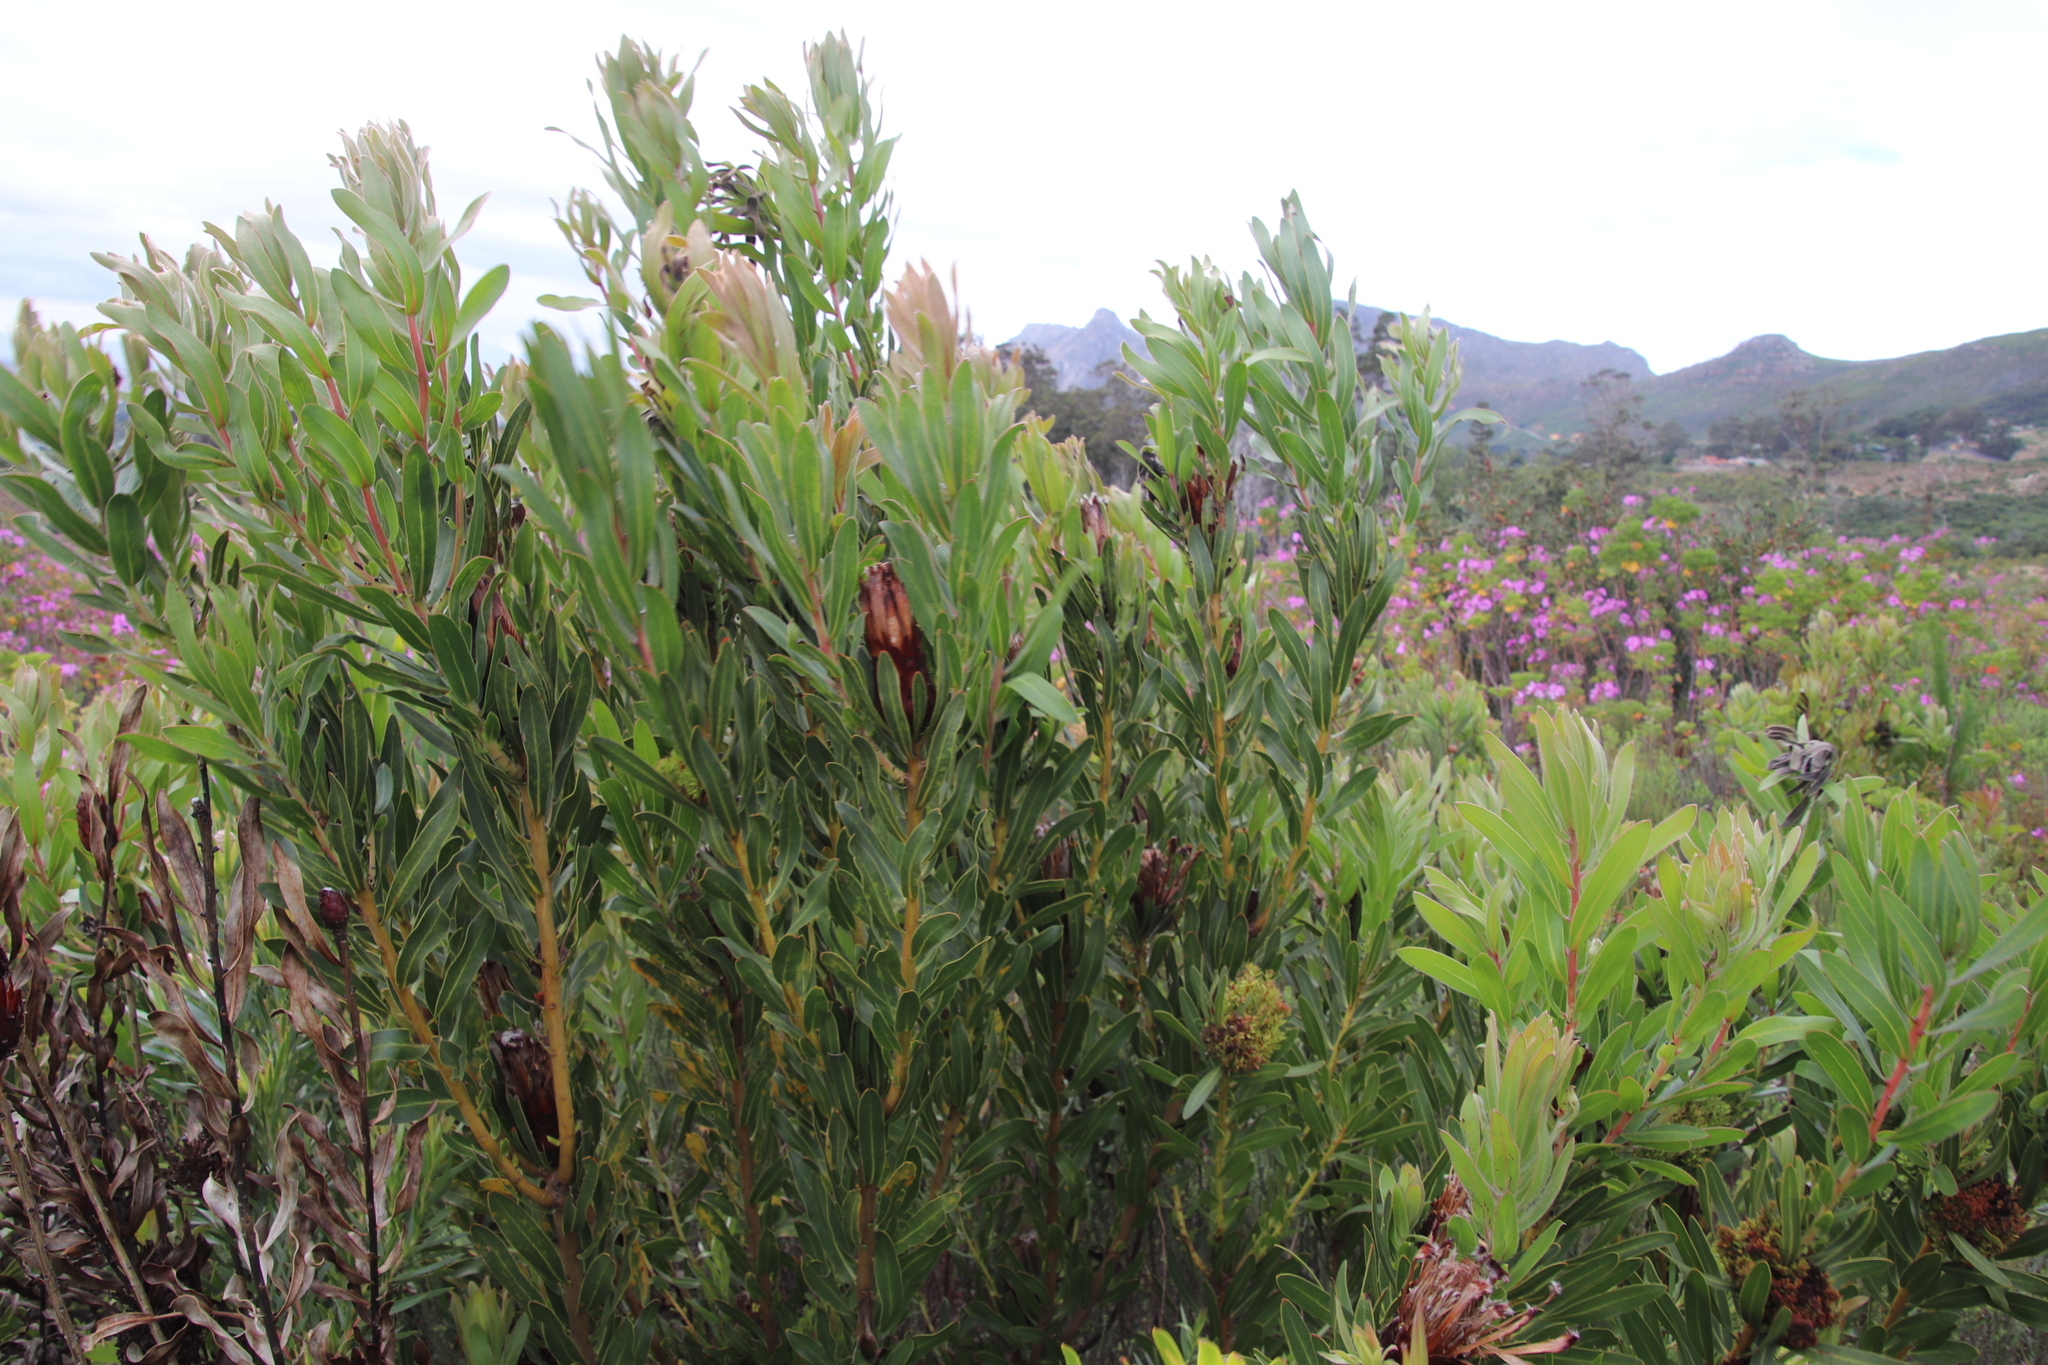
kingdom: Plantae
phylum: Tracheophyta
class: Magnoliopsida
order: Proteales
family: Proteaceae
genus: Protea
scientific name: Protea lepidocarpodendron
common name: Black-bearded protea
